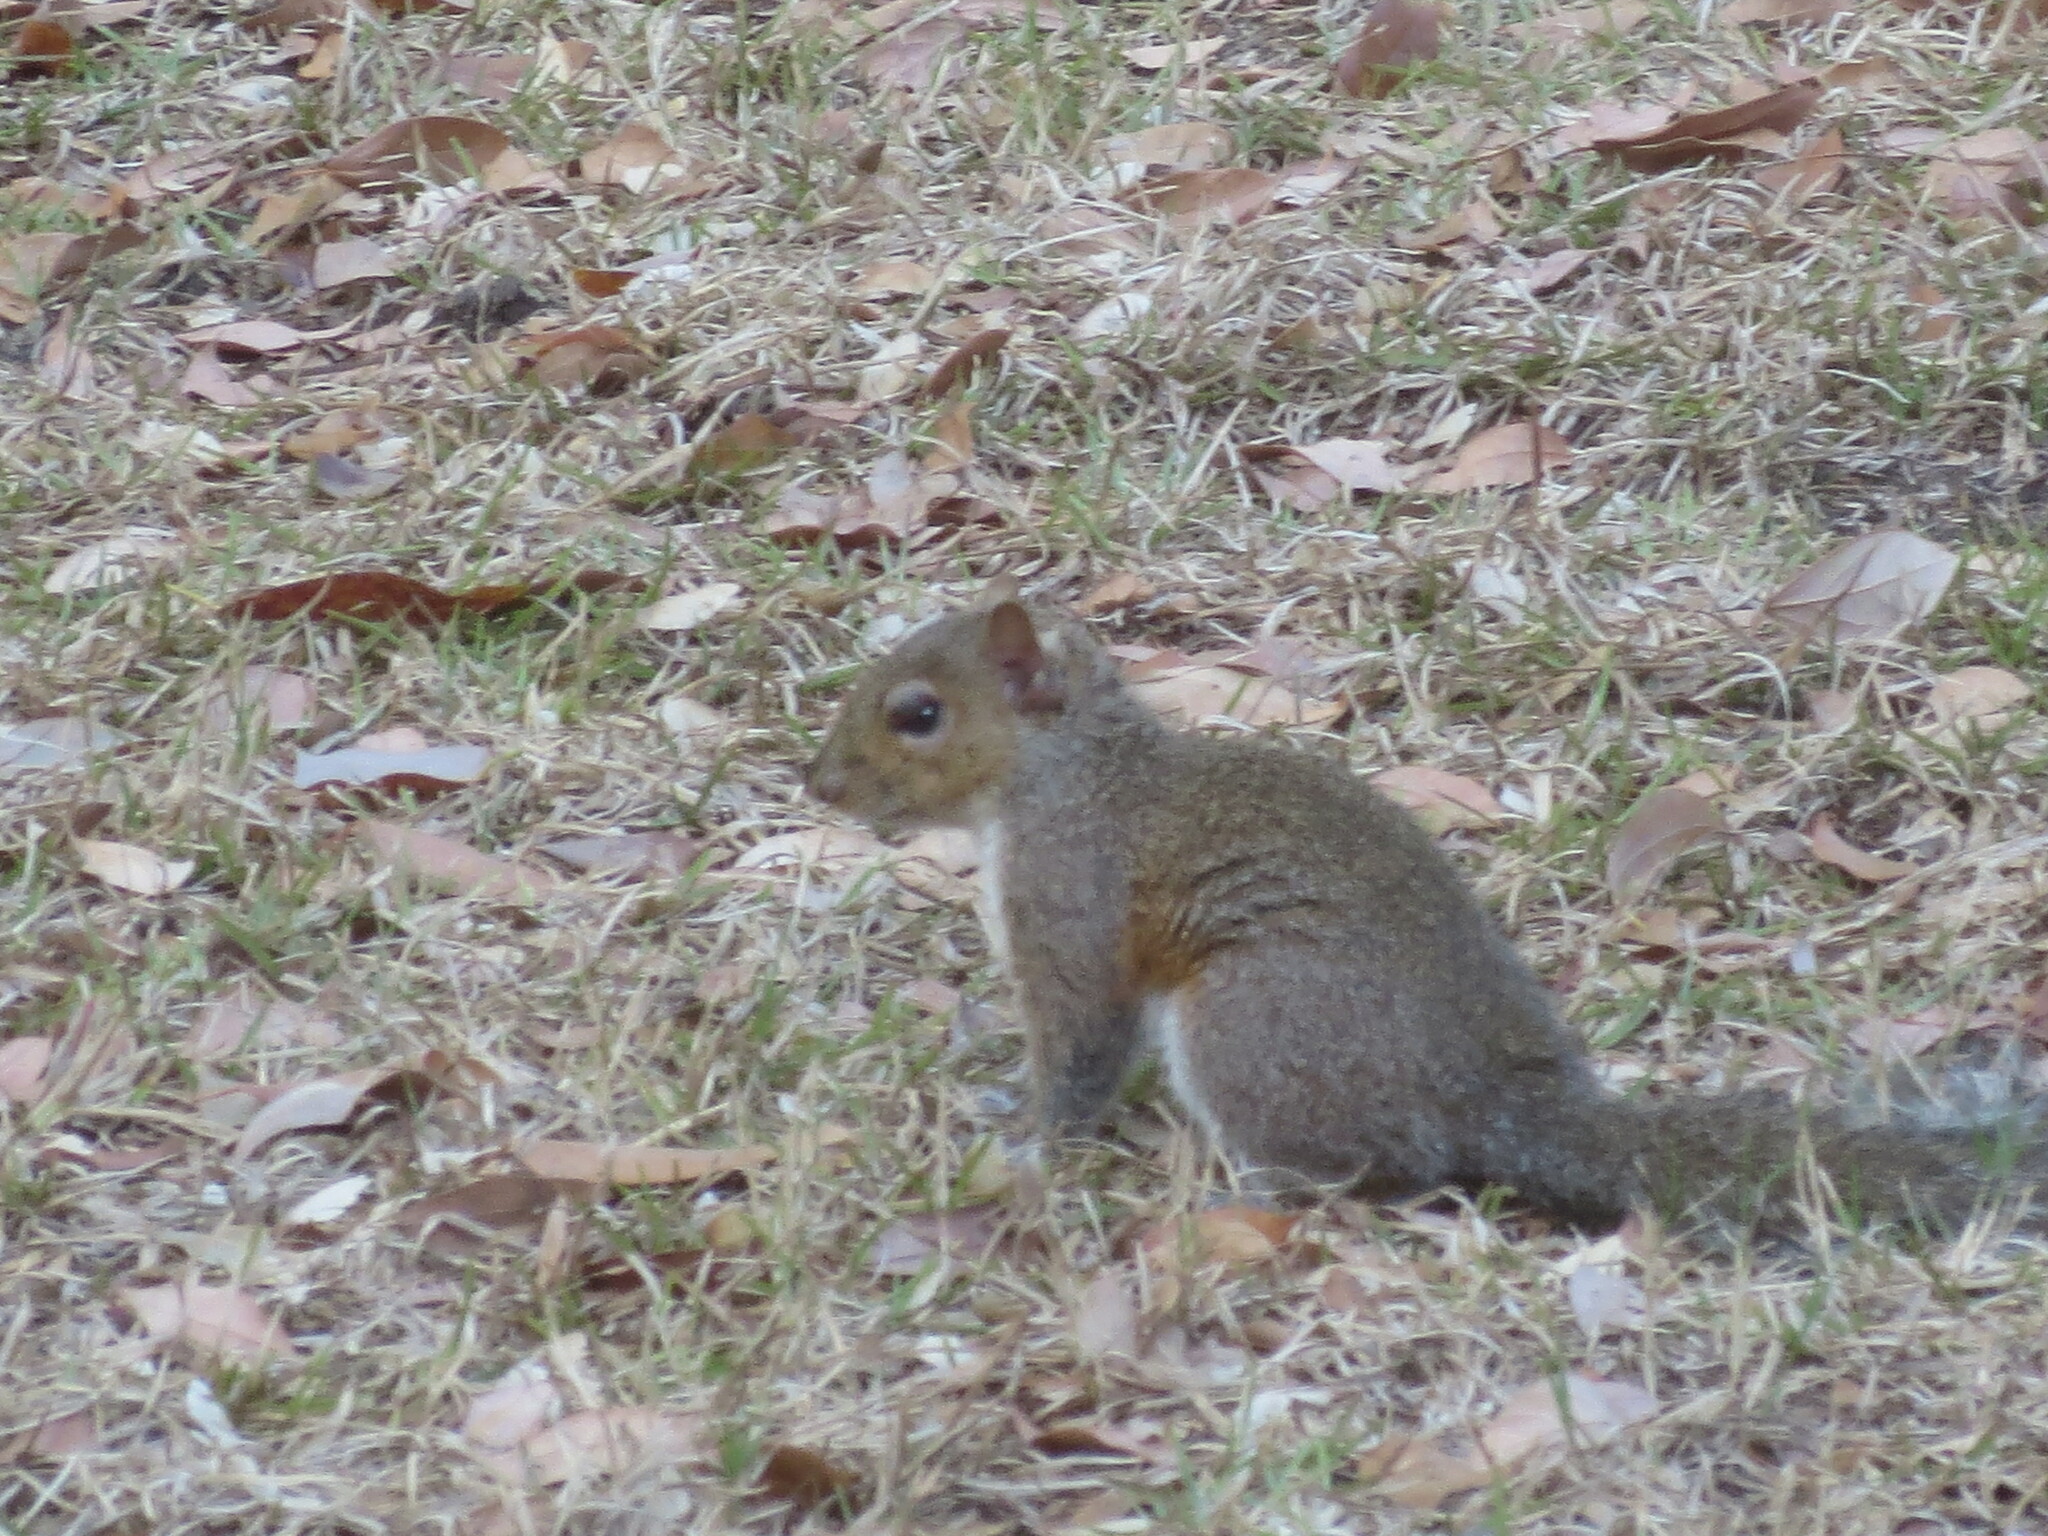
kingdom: Animalia
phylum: Chordata
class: Mammalia
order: Rodentia
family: Sciuridae
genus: Sciurus
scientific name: Sciurus carolinensis
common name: Eastern gray squirrel
